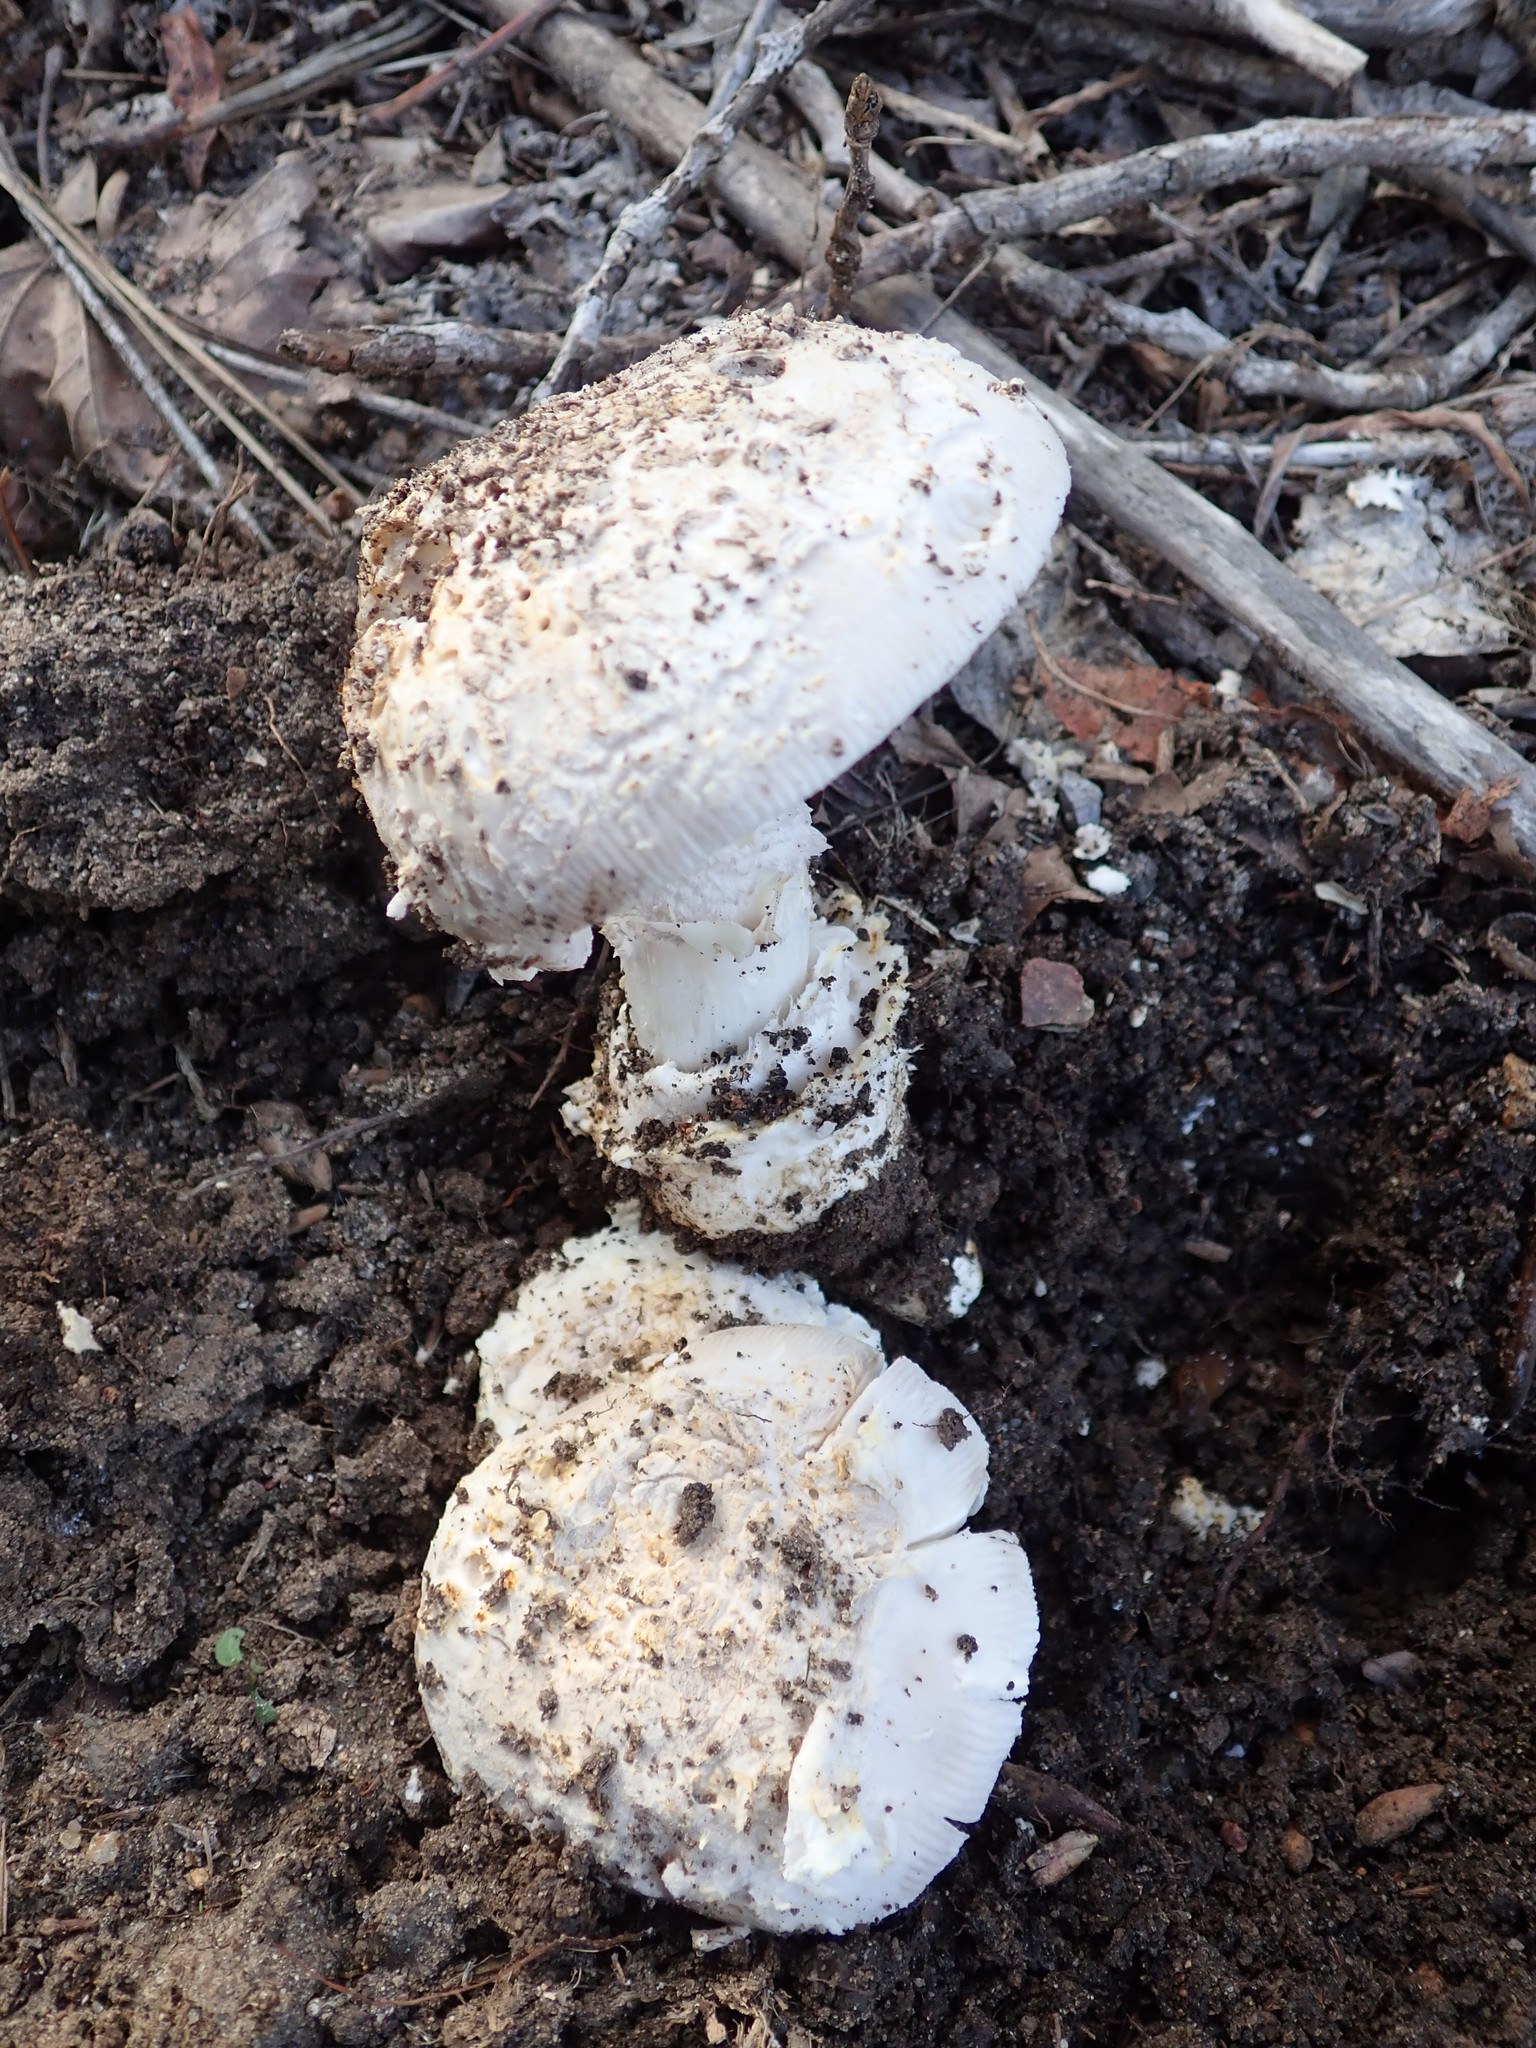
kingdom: Fungi
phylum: Basidiomycota
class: Agaricomycetes
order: Agaricales
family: Amanitaceae
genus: Amanita
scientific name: Amanita ocreata
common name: Western destroying angel
